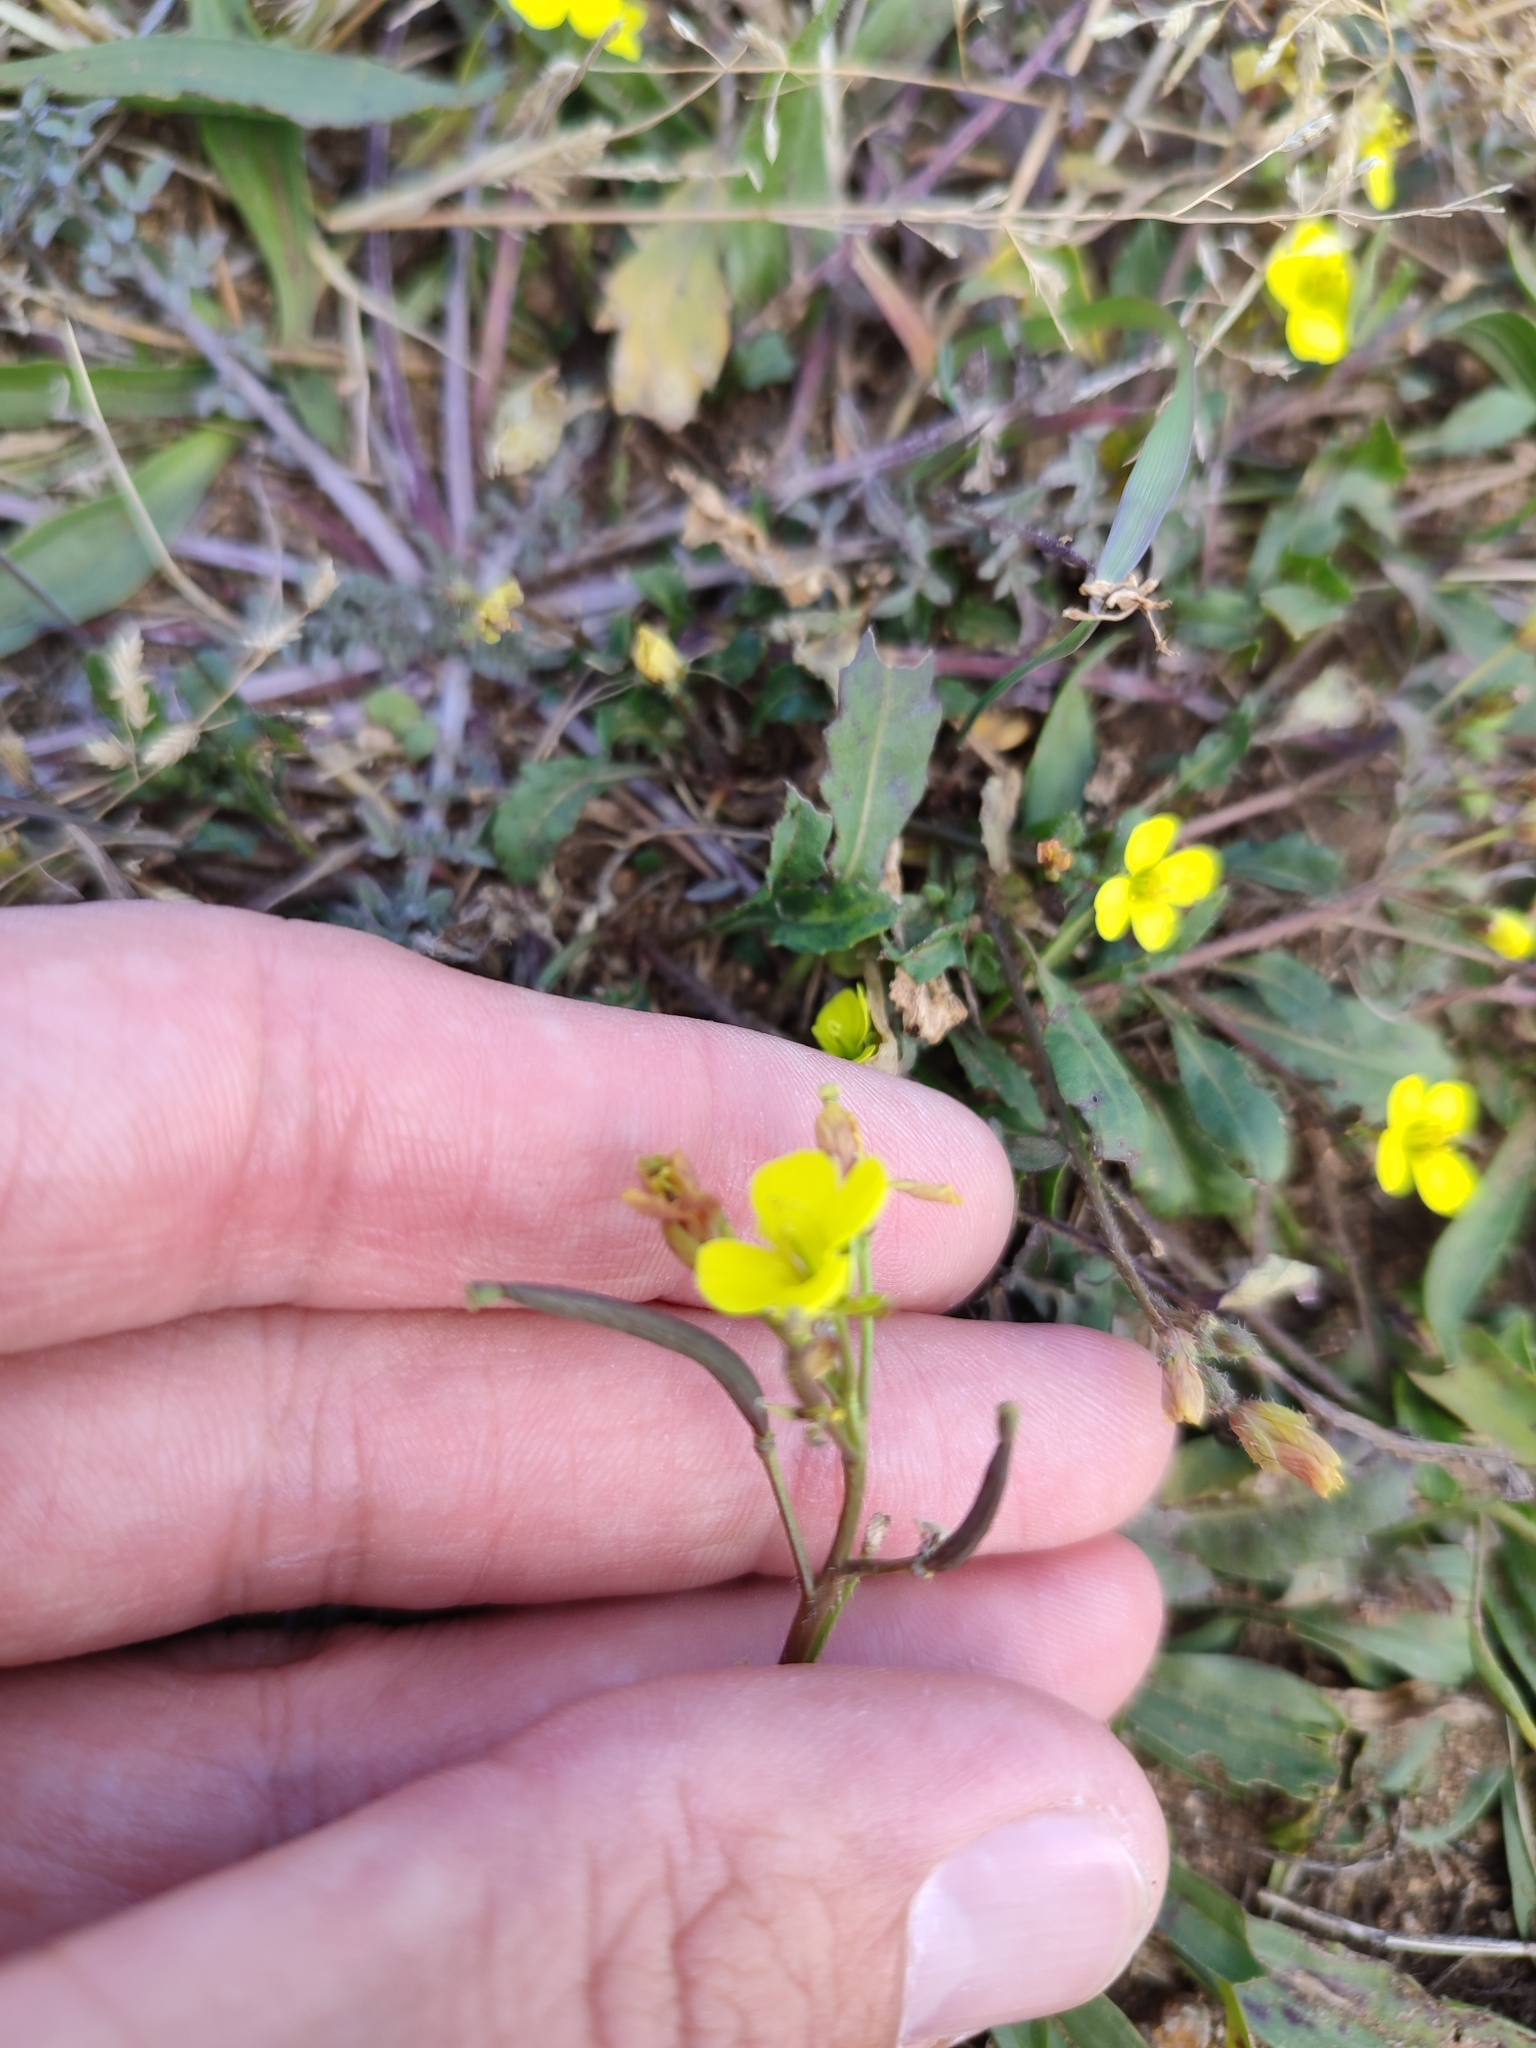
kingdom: Plantae
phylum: Tracheophyta
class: Magnoliopsida
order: Brassicales
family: Brassicaceae
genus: Diplotaxis
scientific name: Diplotaxis muralis
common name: Annual wall-rocket
